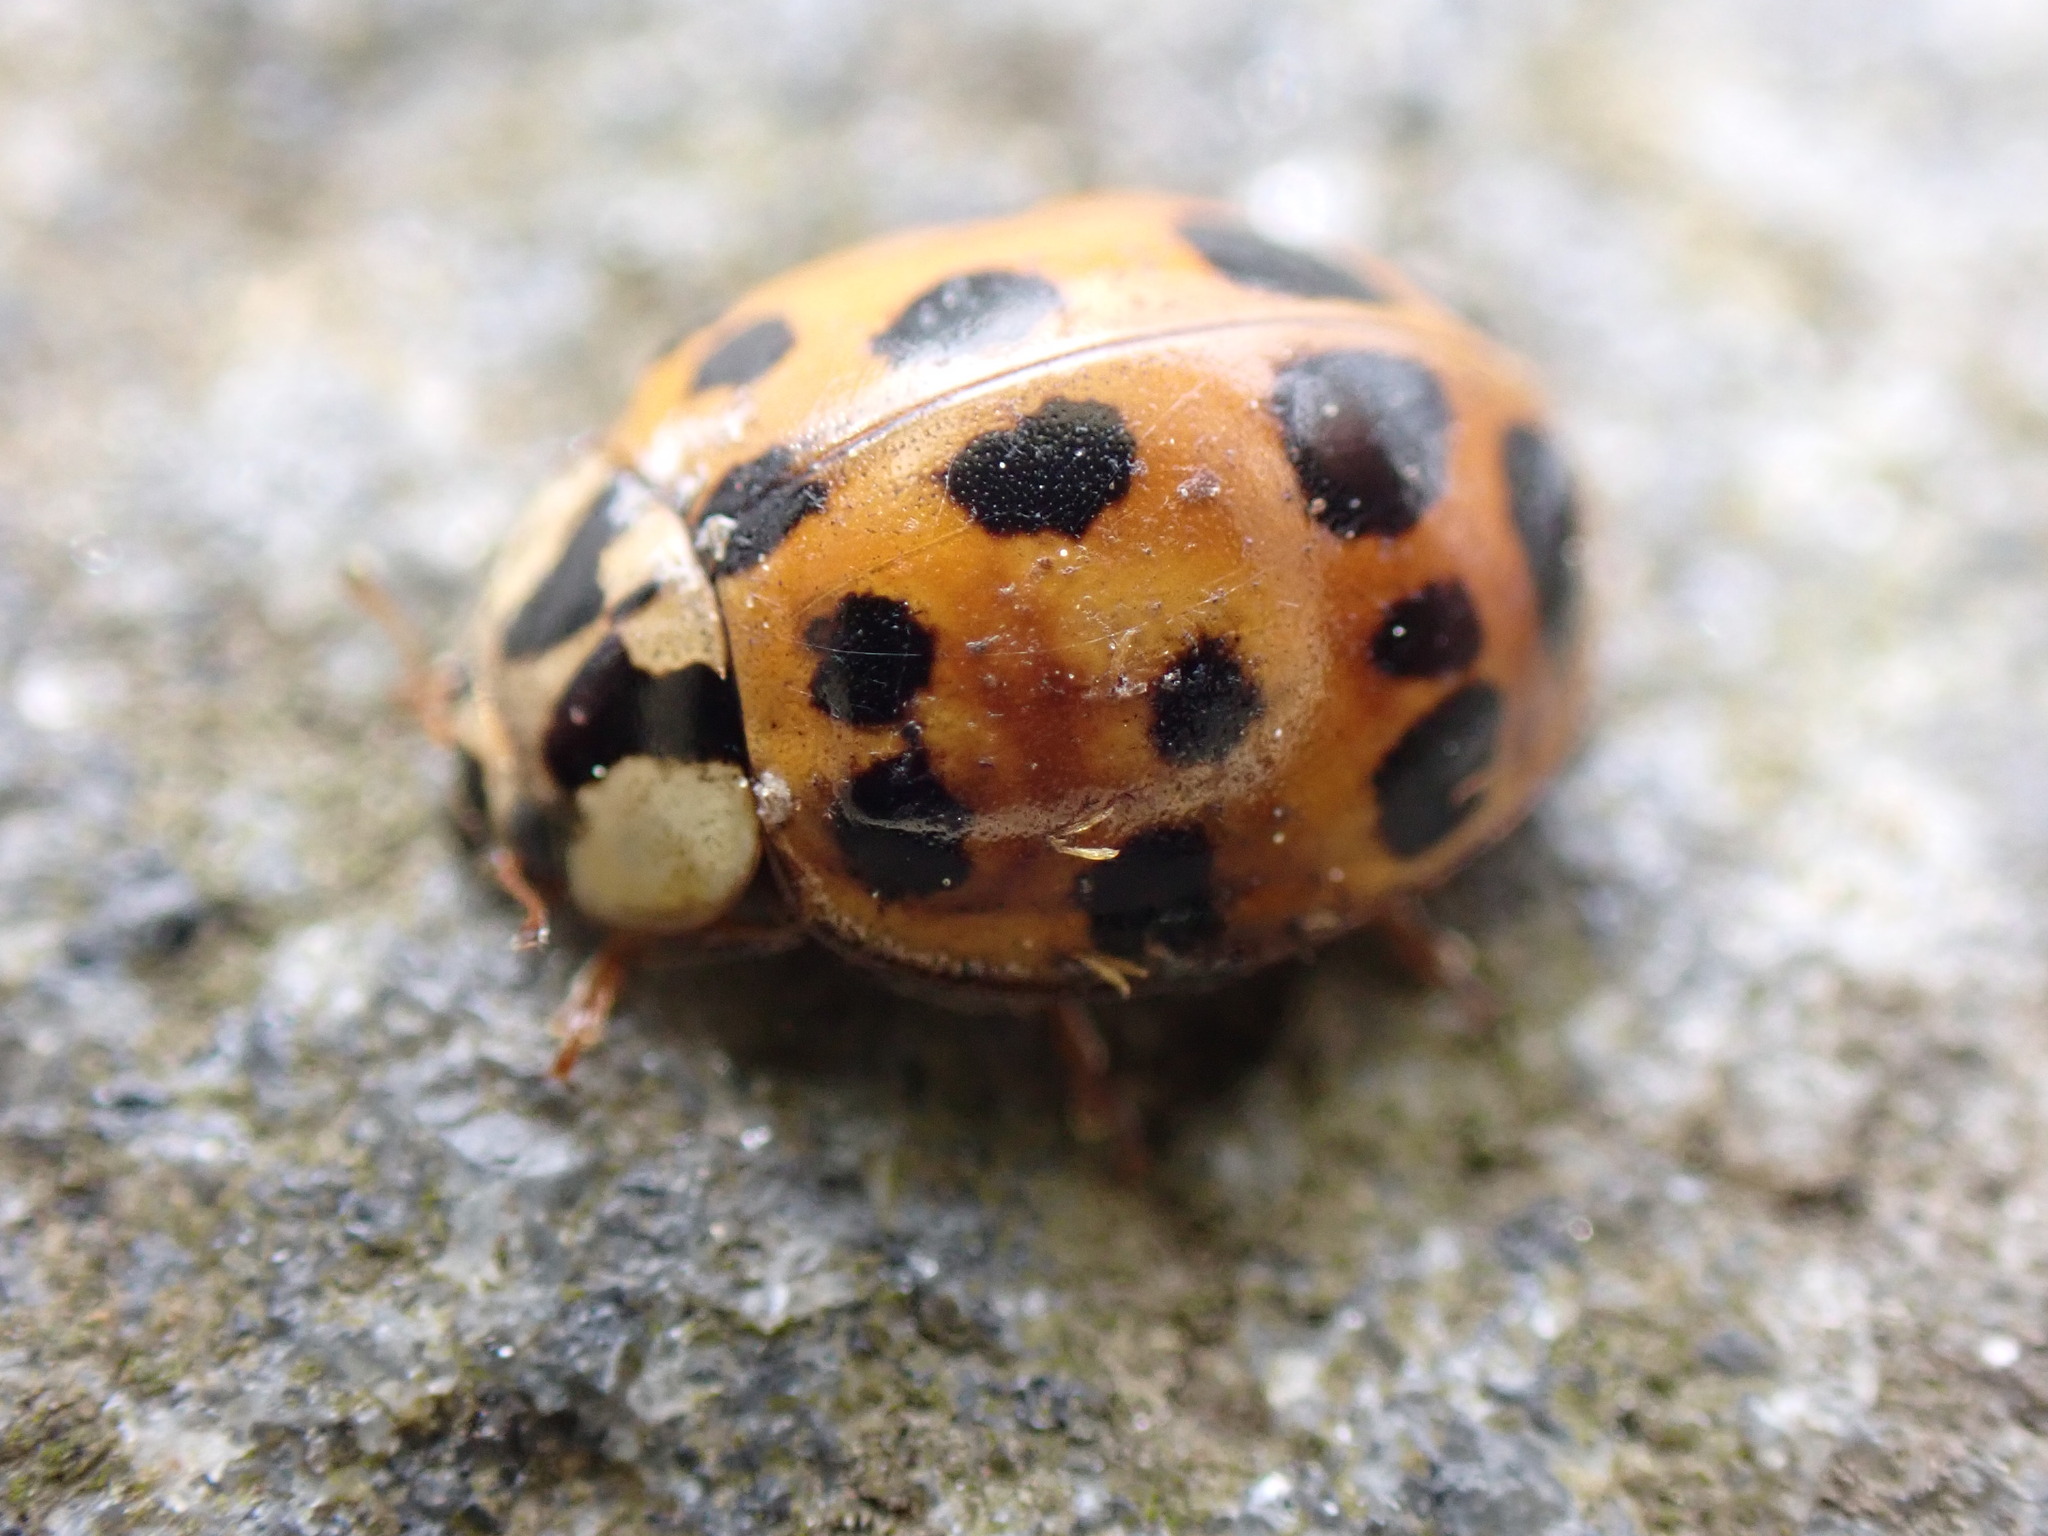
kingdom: Animalia
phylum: Arthropoda
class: Insecta
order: Coleoptera
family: Coccinellidae
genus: Harmonia
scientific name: Harmonia axyridis
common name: Harlequin ladybird
